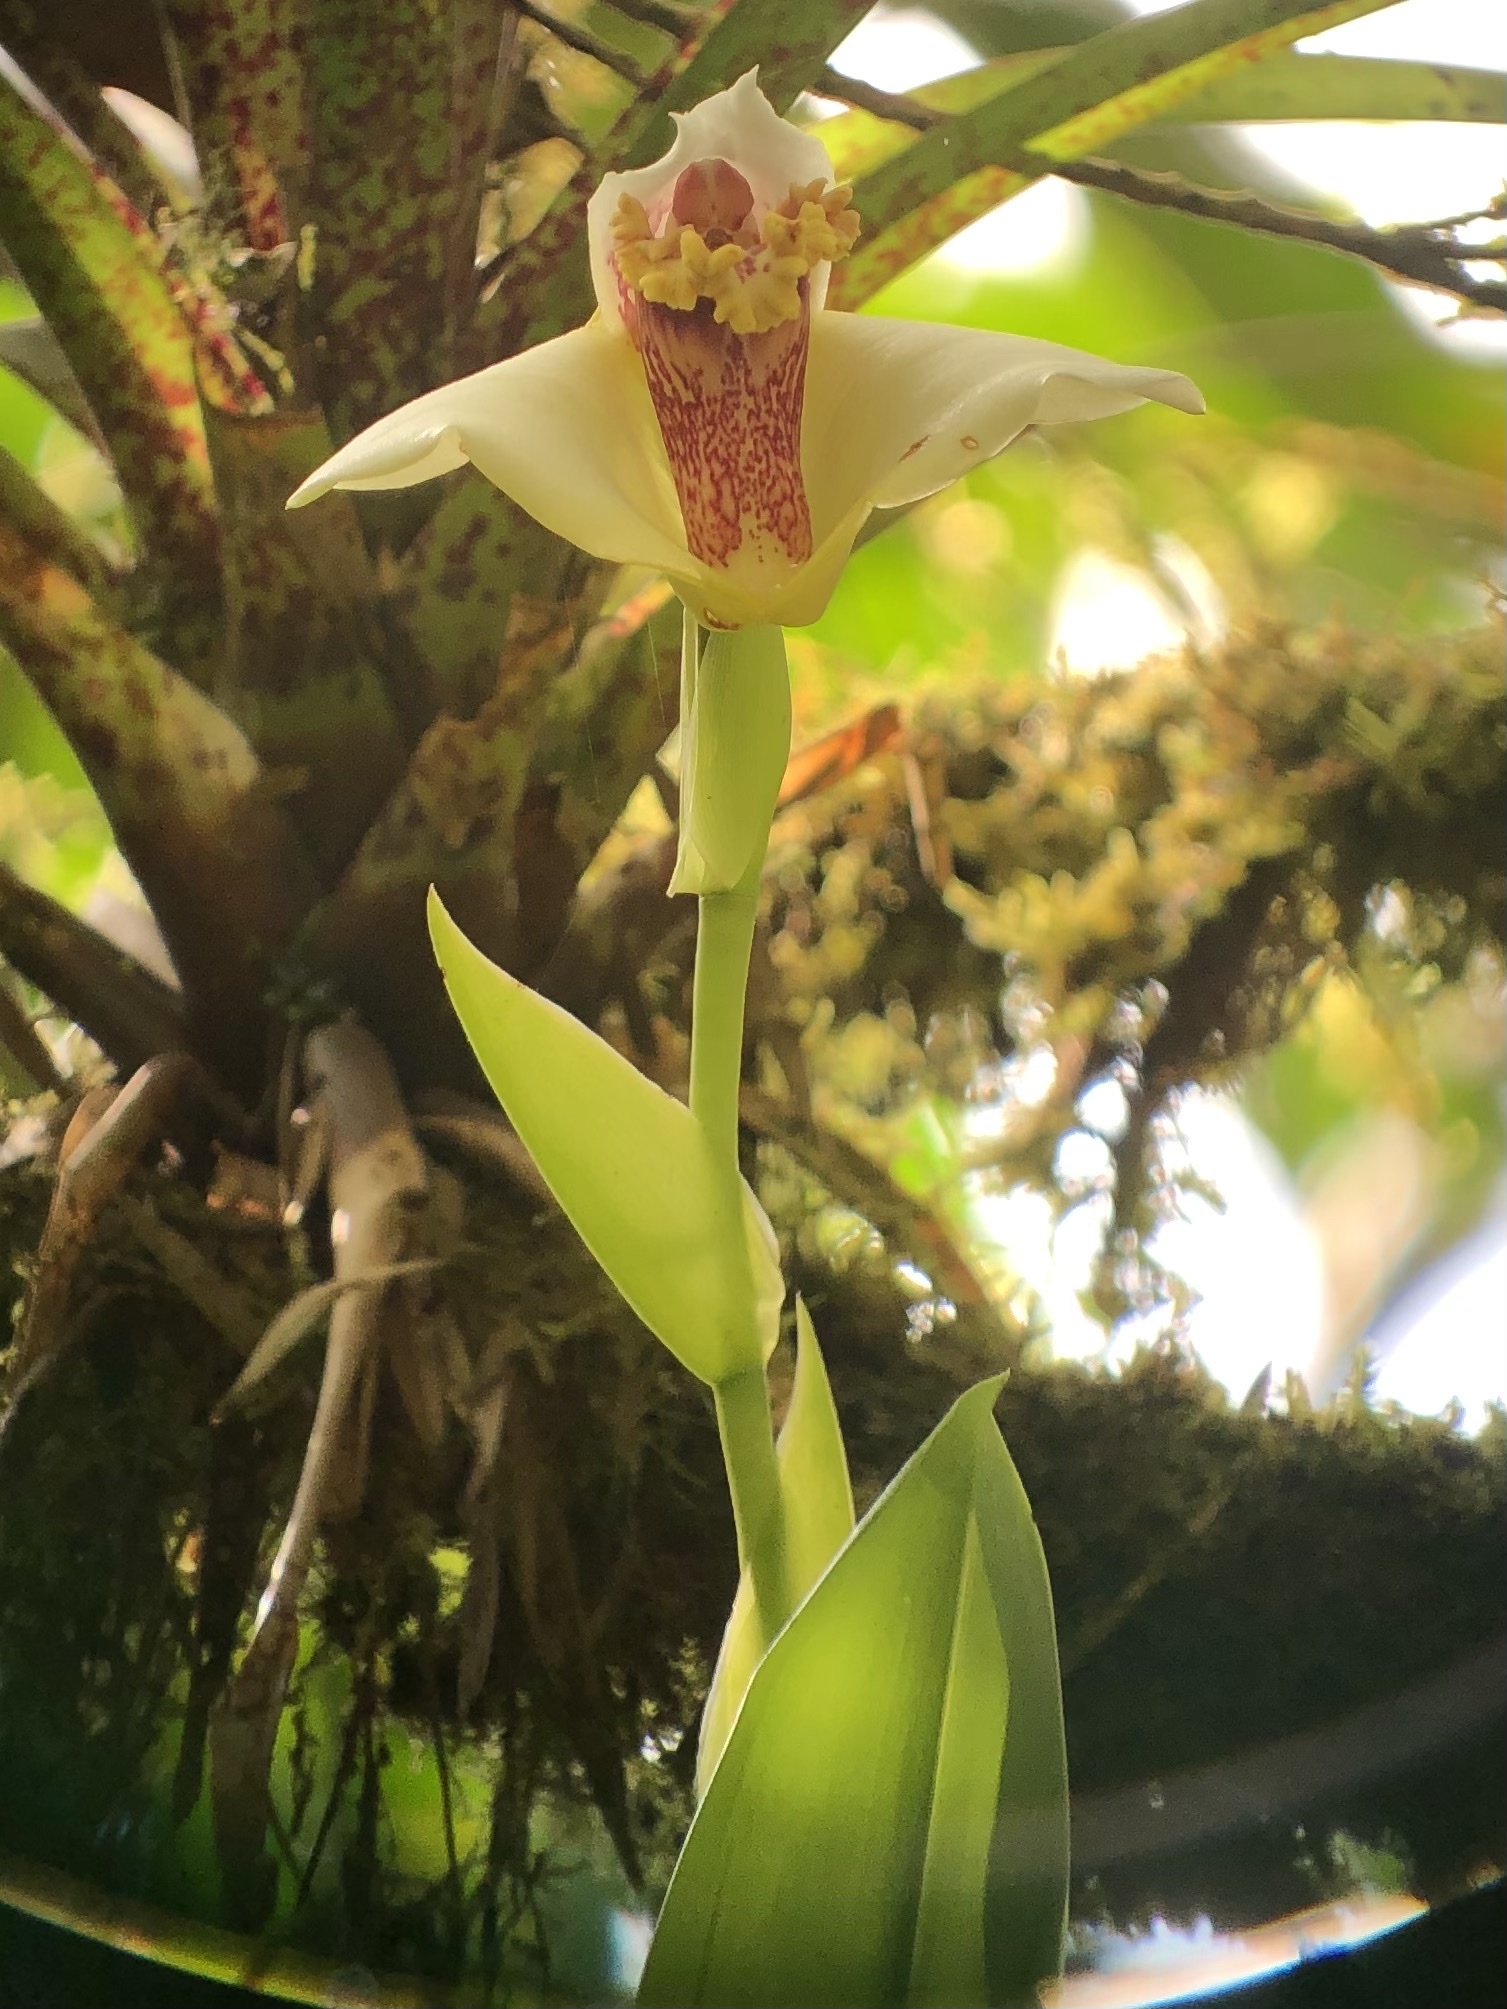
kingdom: Plantae
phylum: Tracheophyta
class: Liliopsida
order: Asparagales
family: Orchidaceae
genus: Maxillaria
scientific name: Maxillaria fletcheriana
